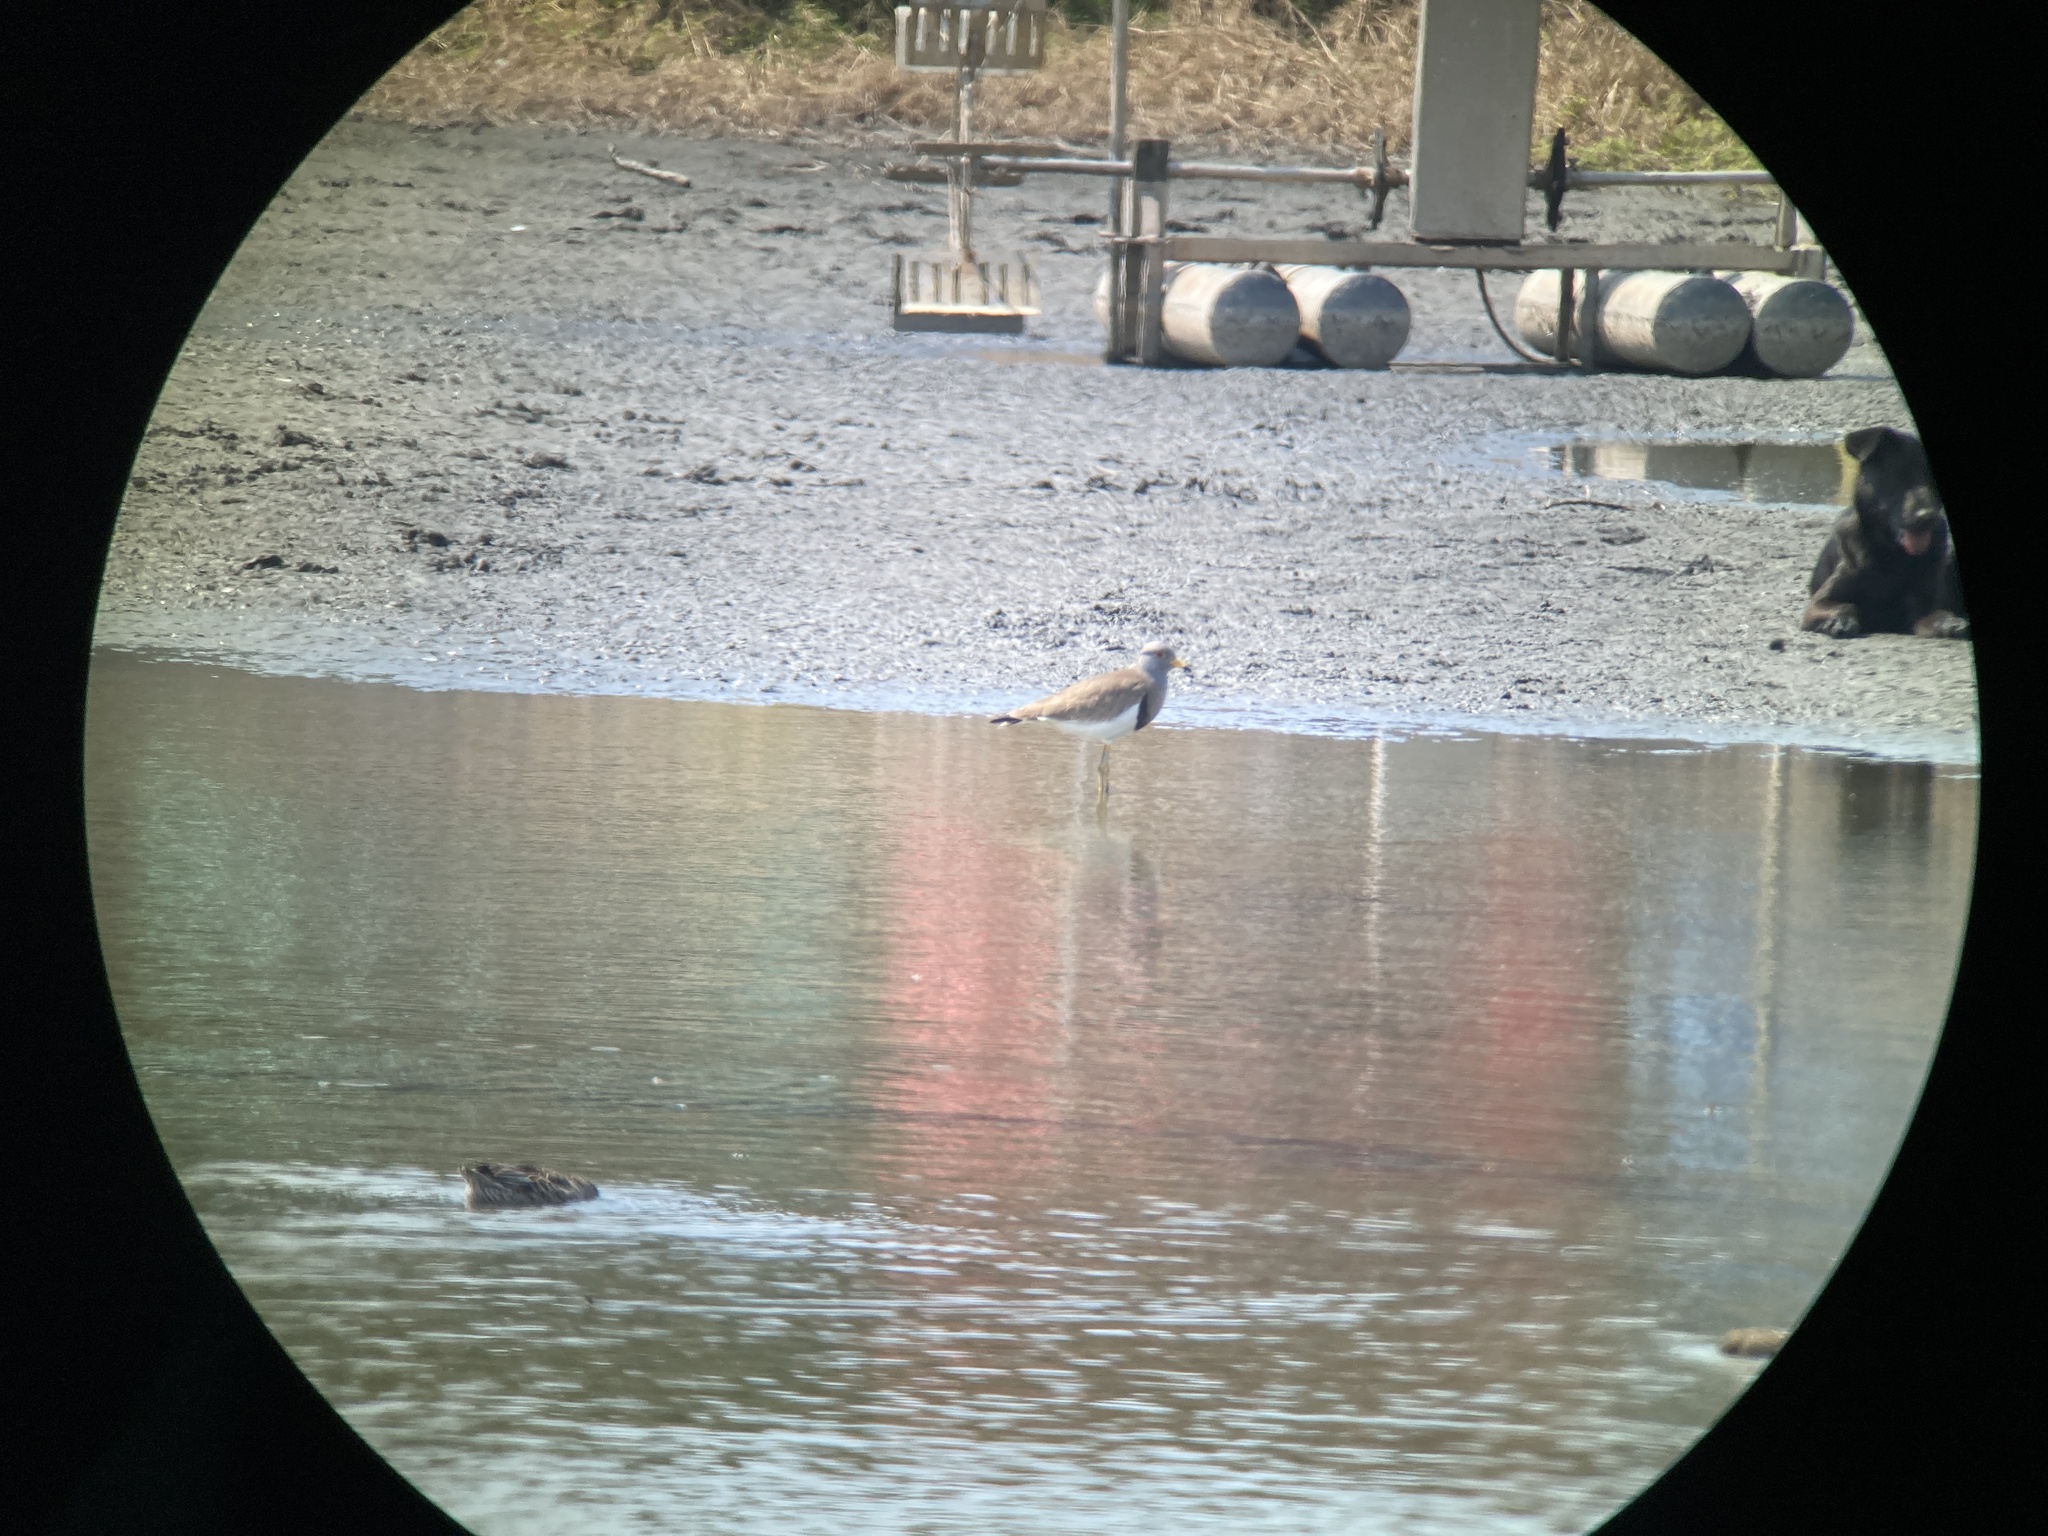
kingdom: Animalia
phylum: Chordata
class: Aves
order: Charadriiformes
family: Charadriidae
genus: Vanellus
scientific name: Vanellus cinereus
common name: Grey-headed lapwing
